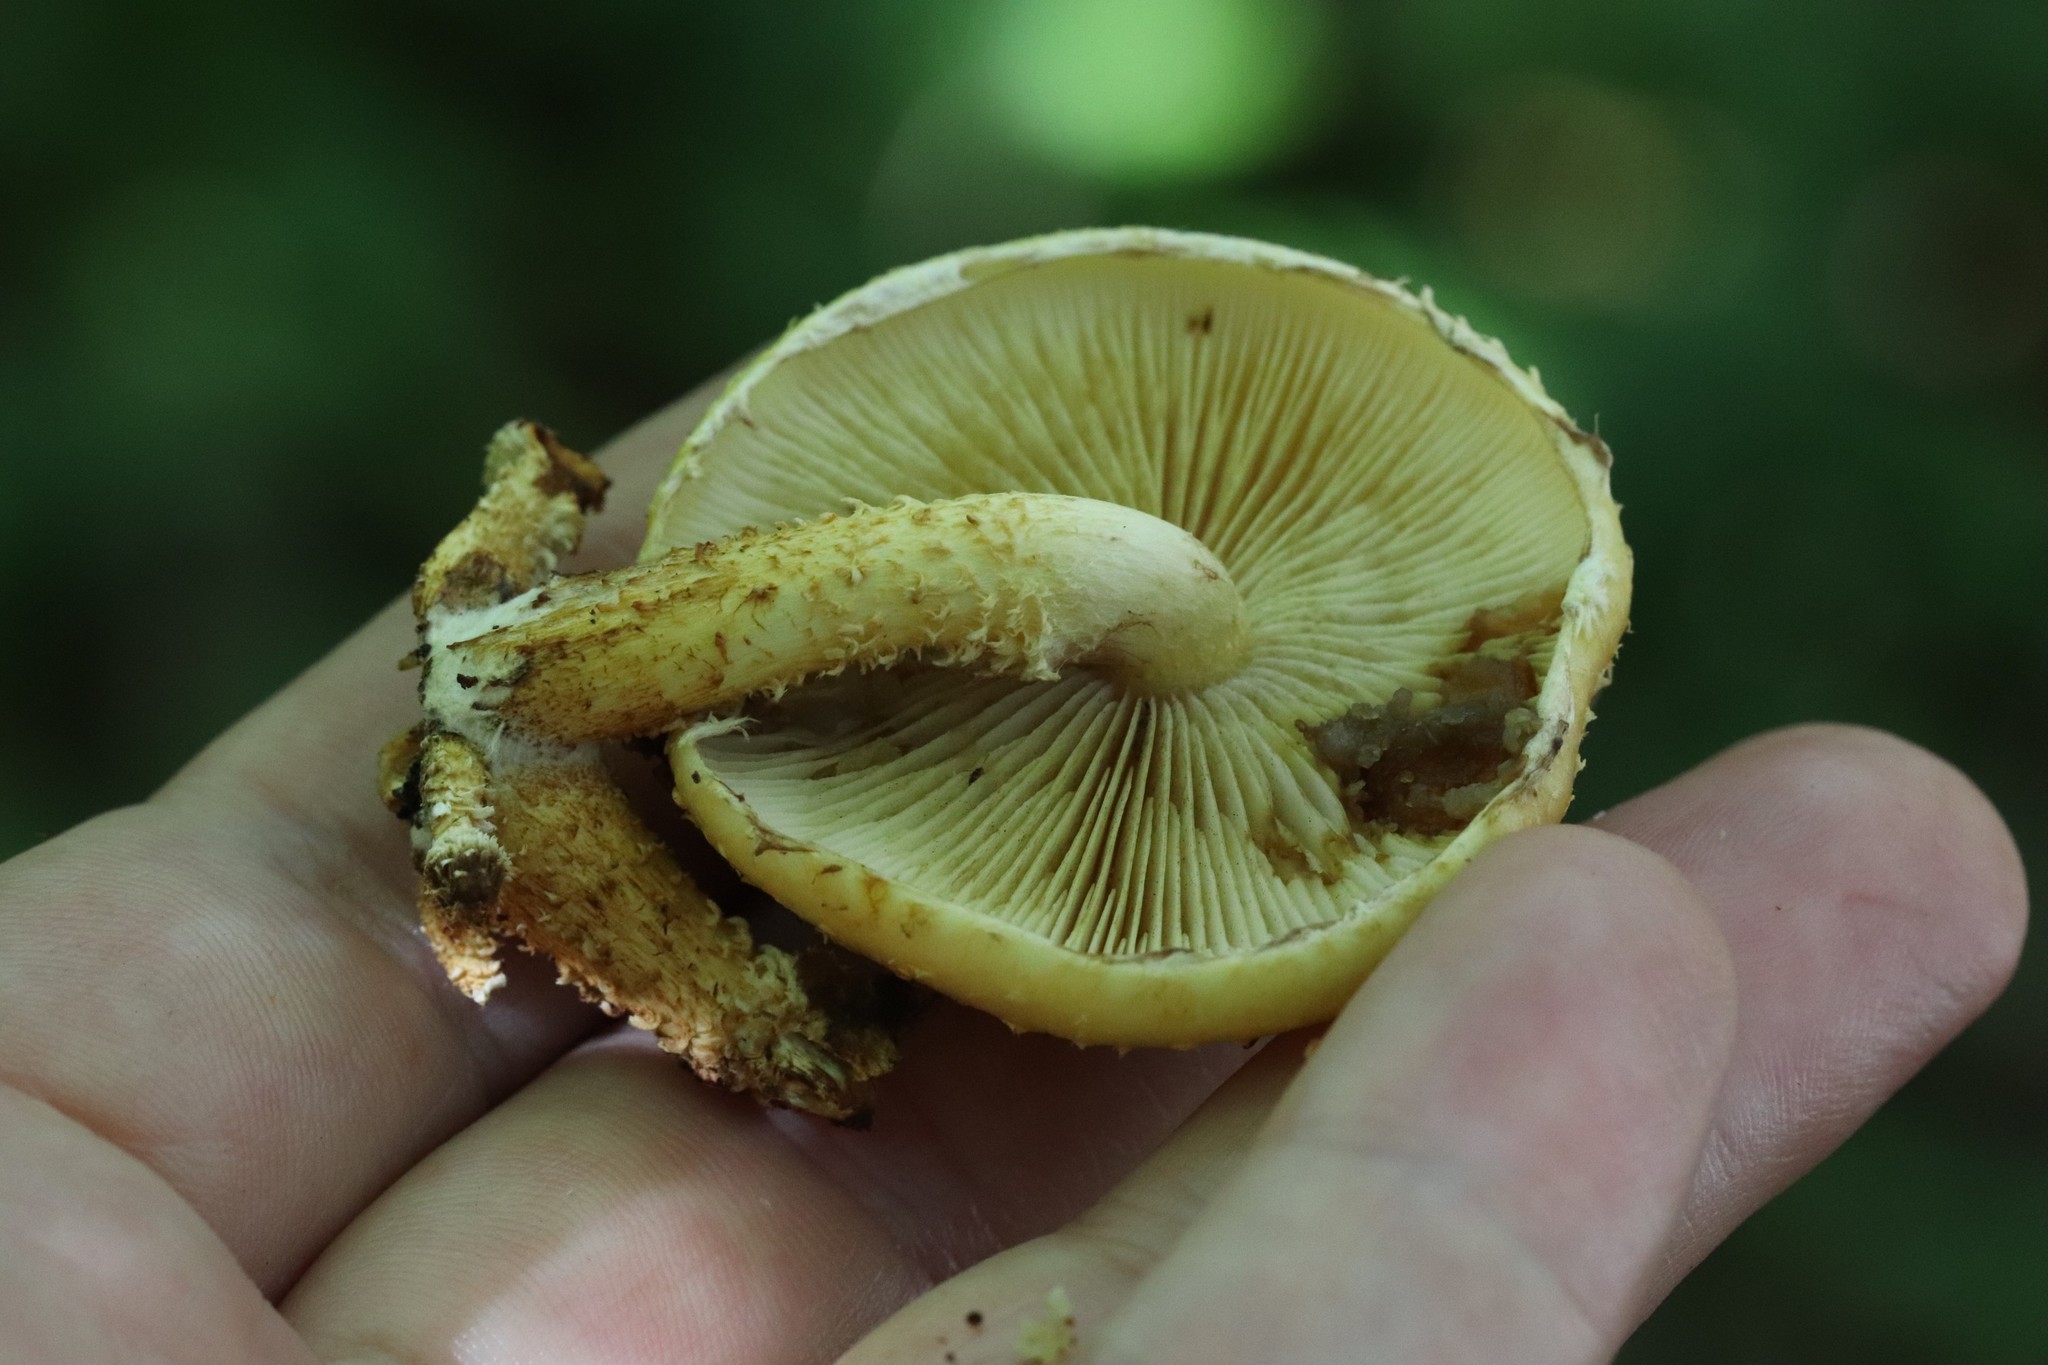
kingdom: Fungi
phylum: Basidiomycota
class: Agaricomycetes
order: Agaricales
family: Strophariaceae
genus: Pholiota
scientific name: Pholiota aurivella
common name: Golden scalycap
